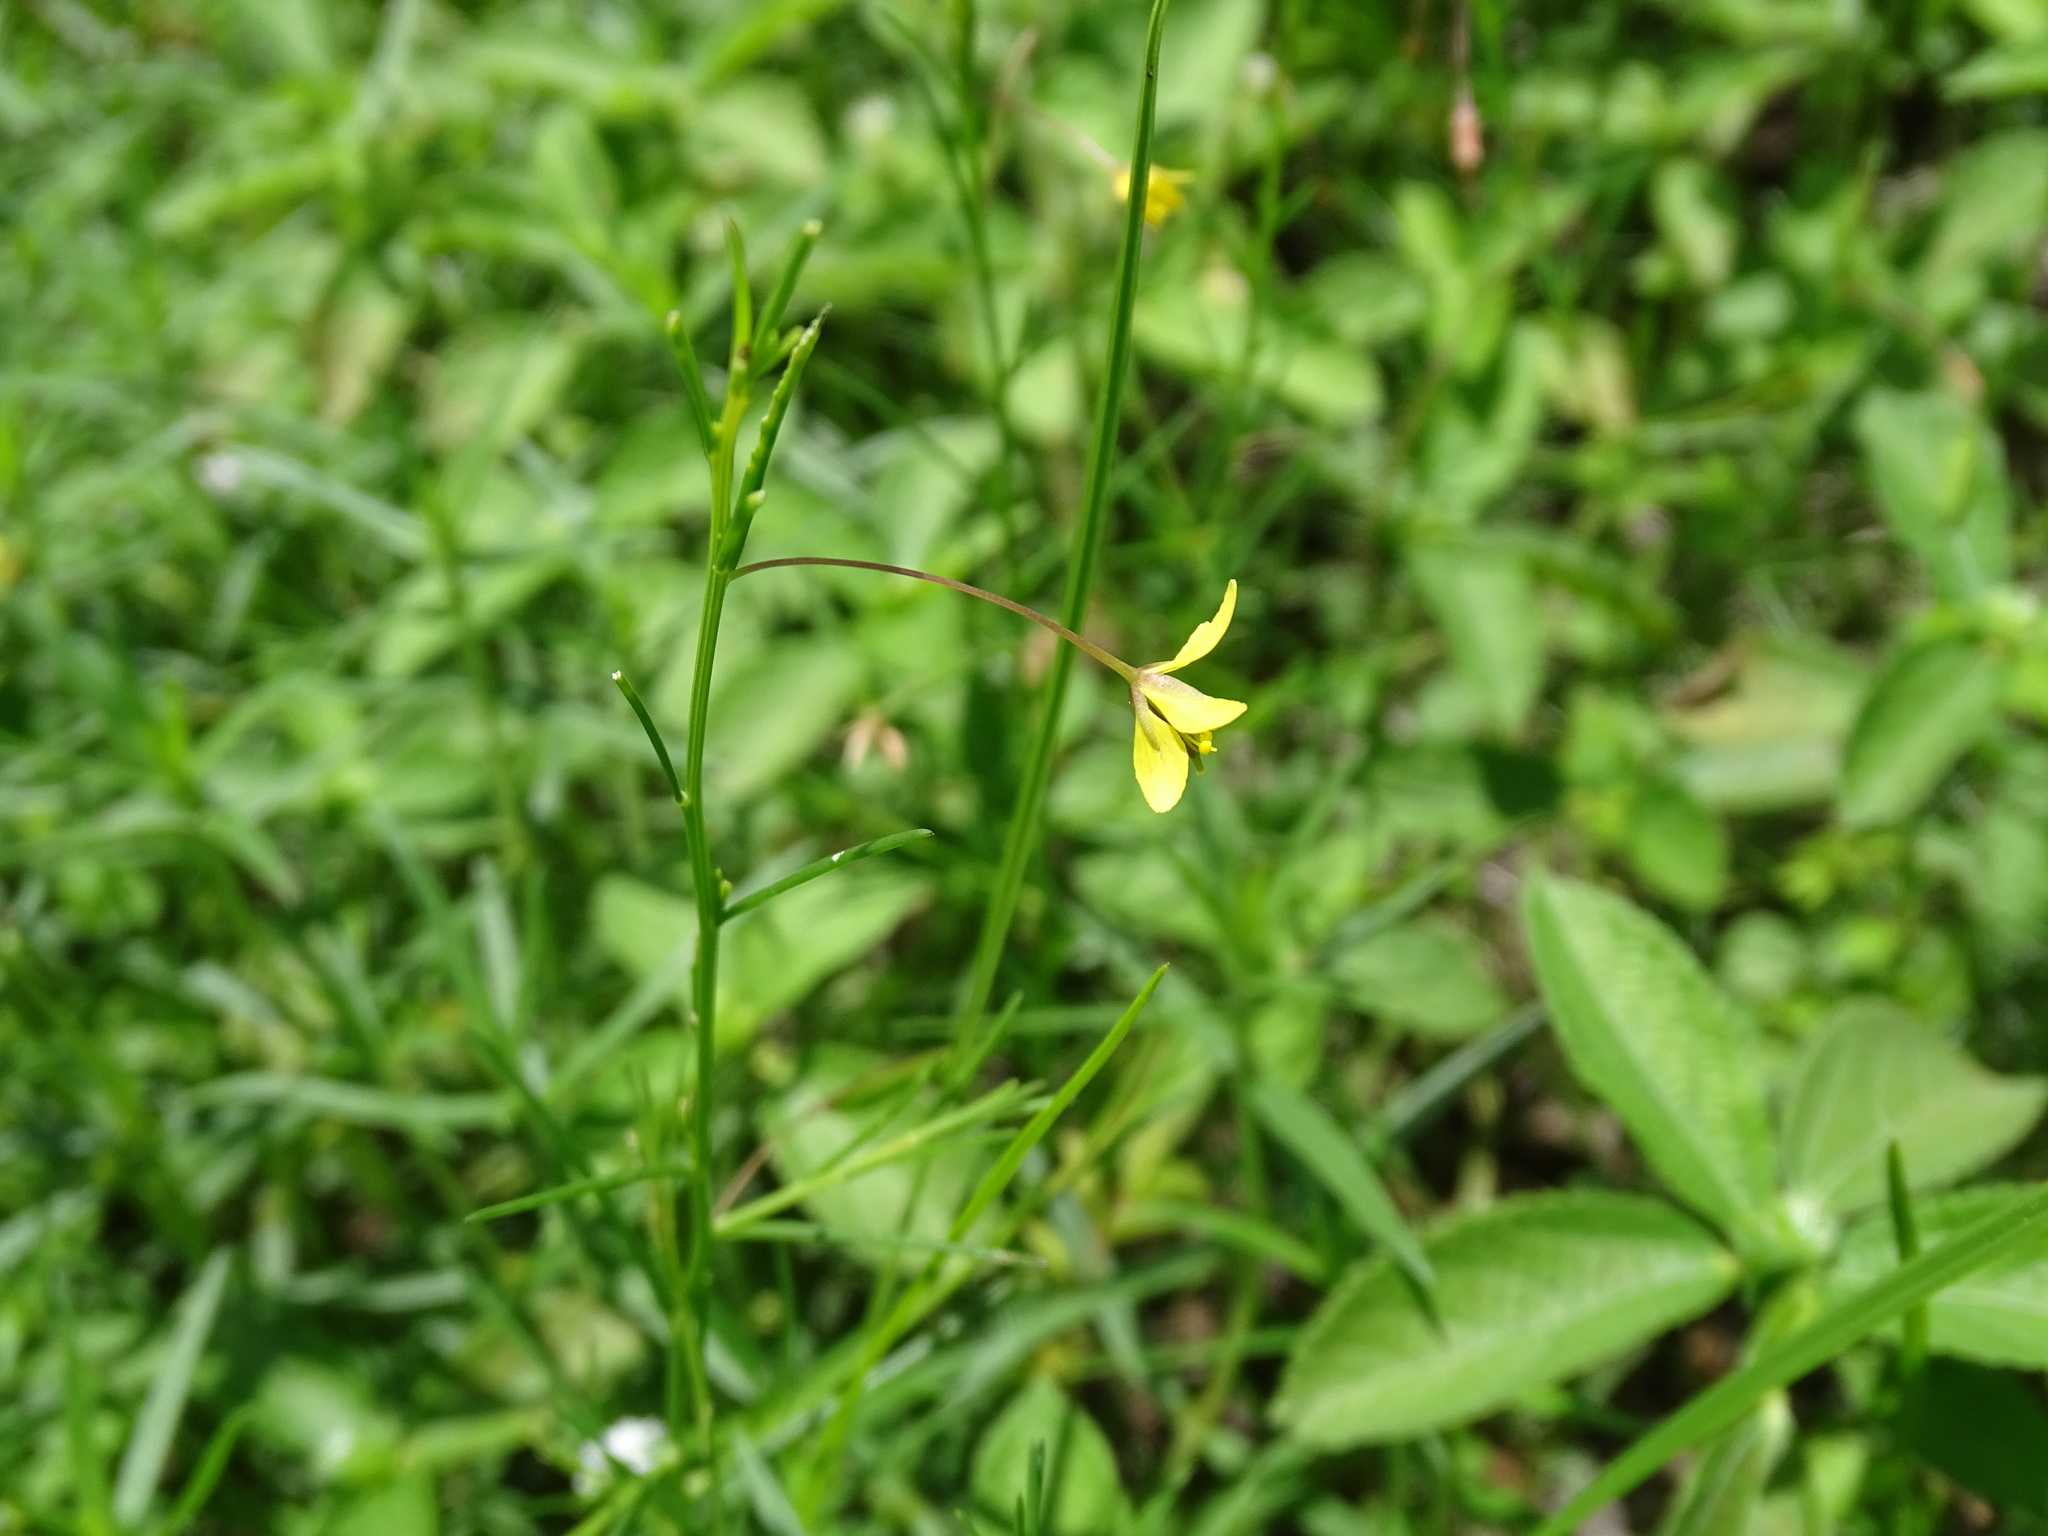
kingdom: Plantae
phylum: Tracheophyta
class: Magnoliopsida
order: Brassicales
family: Cleomaceae
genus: Physostemon
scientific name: Physostemon guianensis
